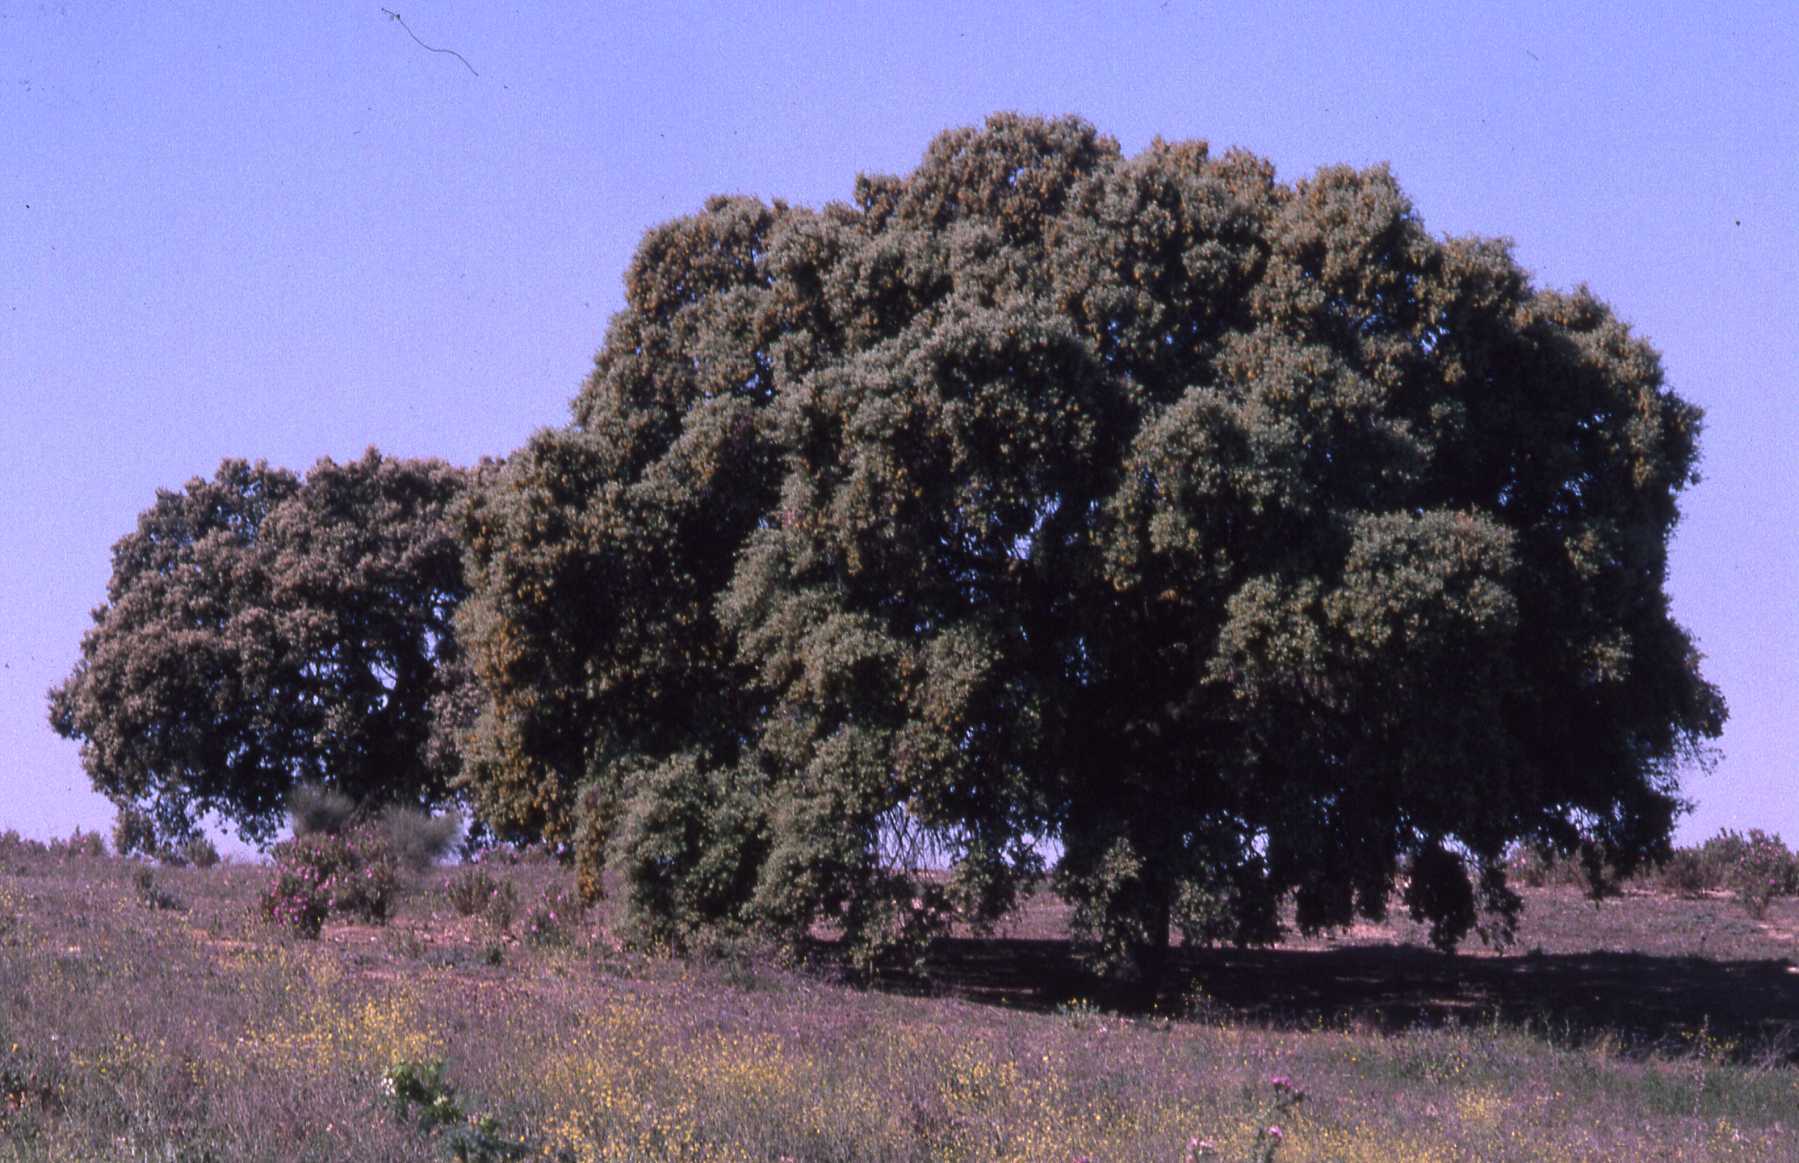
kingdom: Plantae
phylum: Tracheophyta
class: Magnoliopsida
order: Fagales
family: Fagaceae
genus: Quercus
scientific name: Quercus rotundifolia
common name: Holm oak
